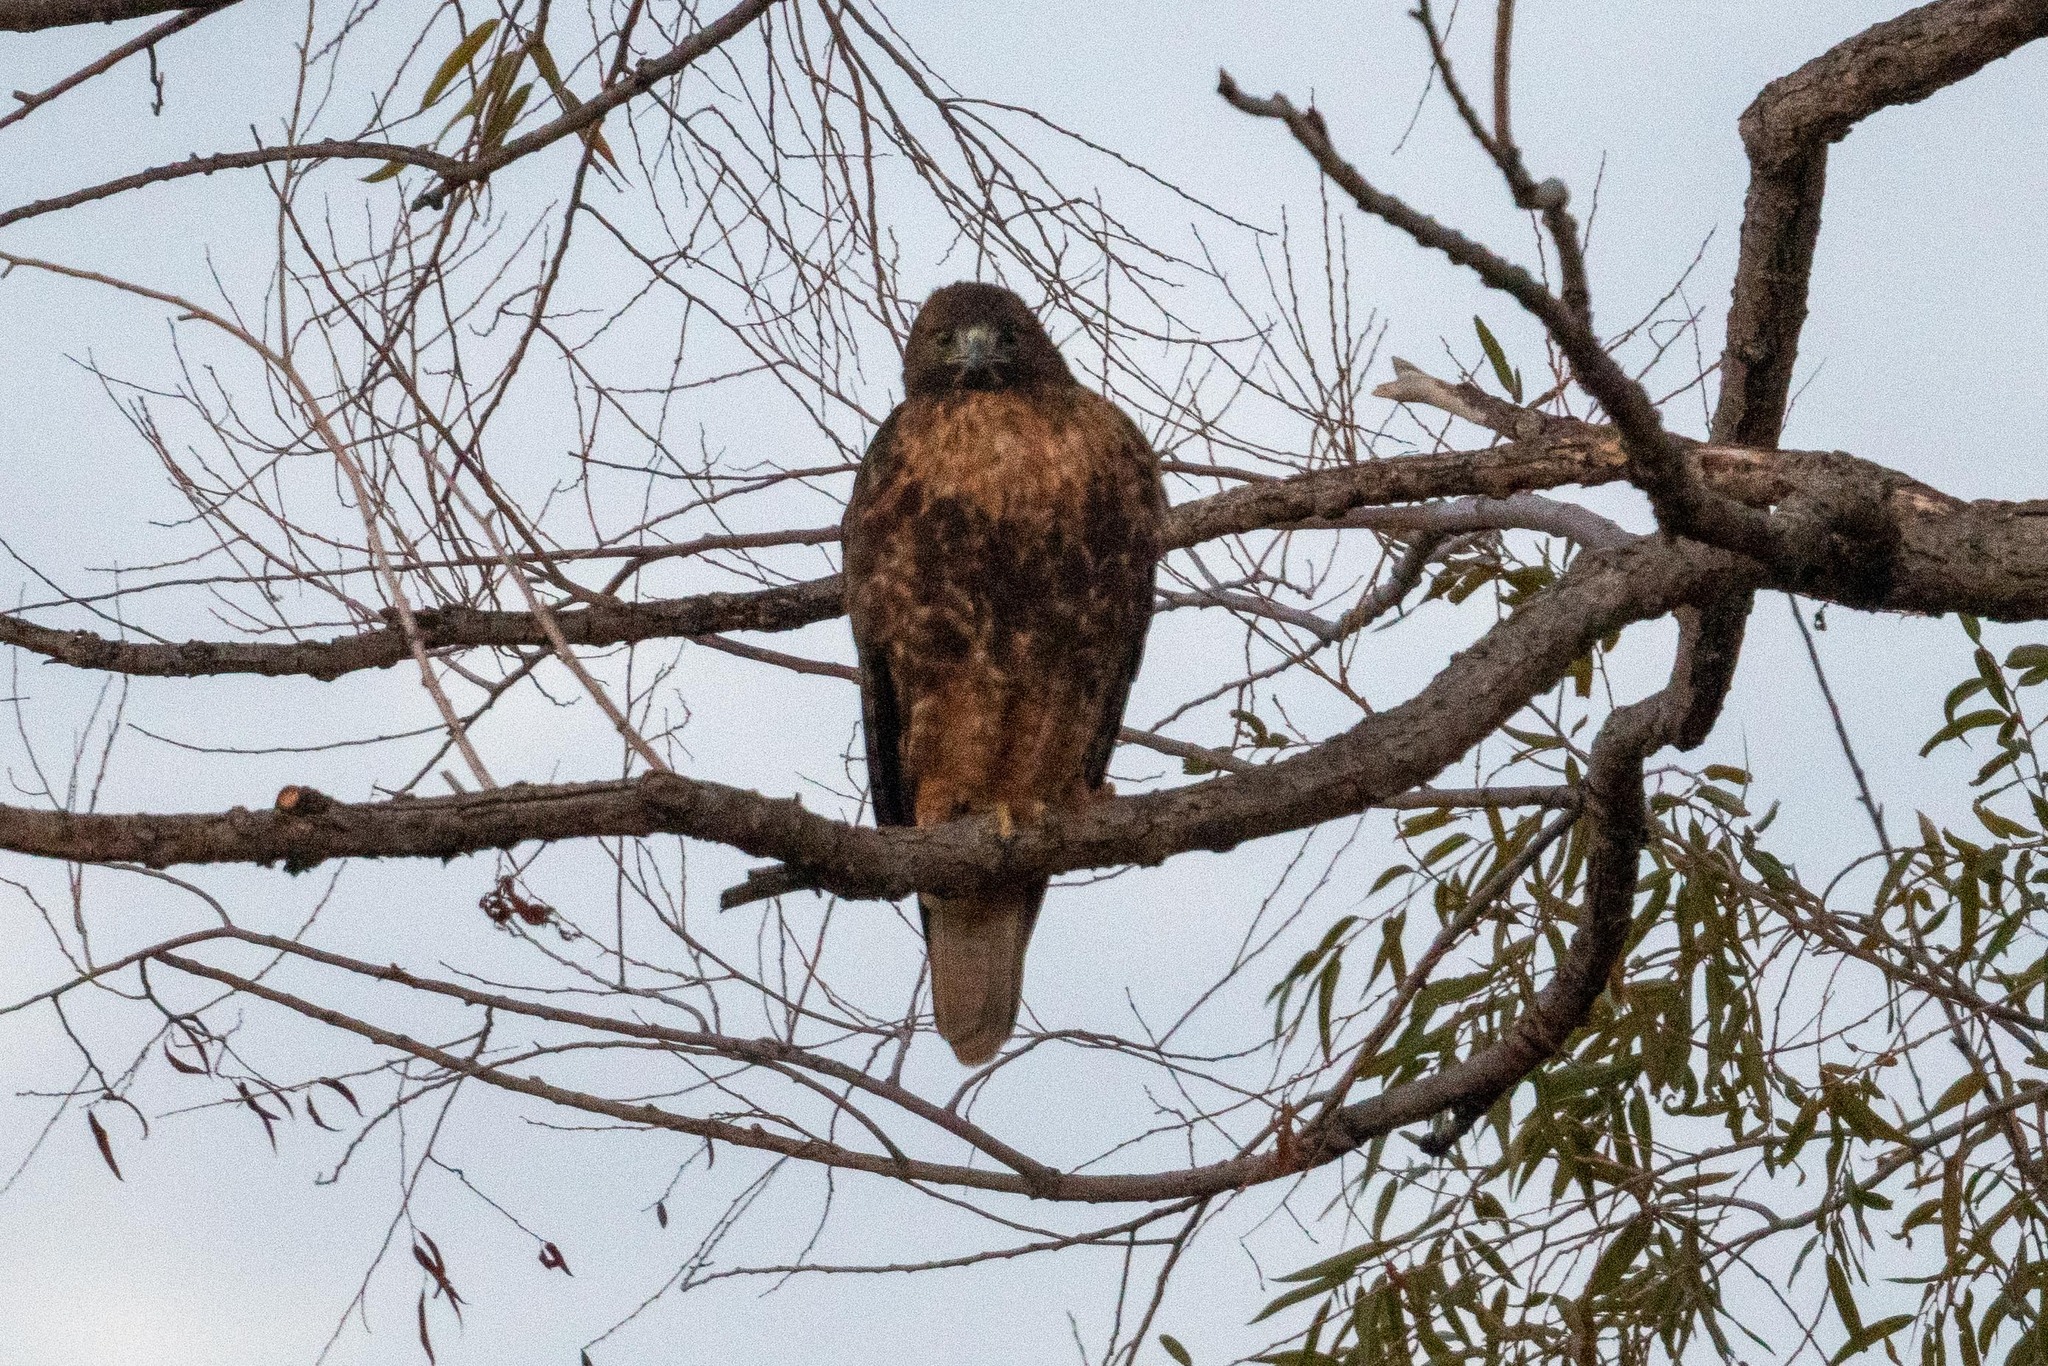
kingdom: Animalia
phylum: Chordata
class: Aves
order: Accipitriformes
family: Accipitridae
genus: Buteo
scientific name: Buteo jamaicensis
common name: Red-tailed hawk
